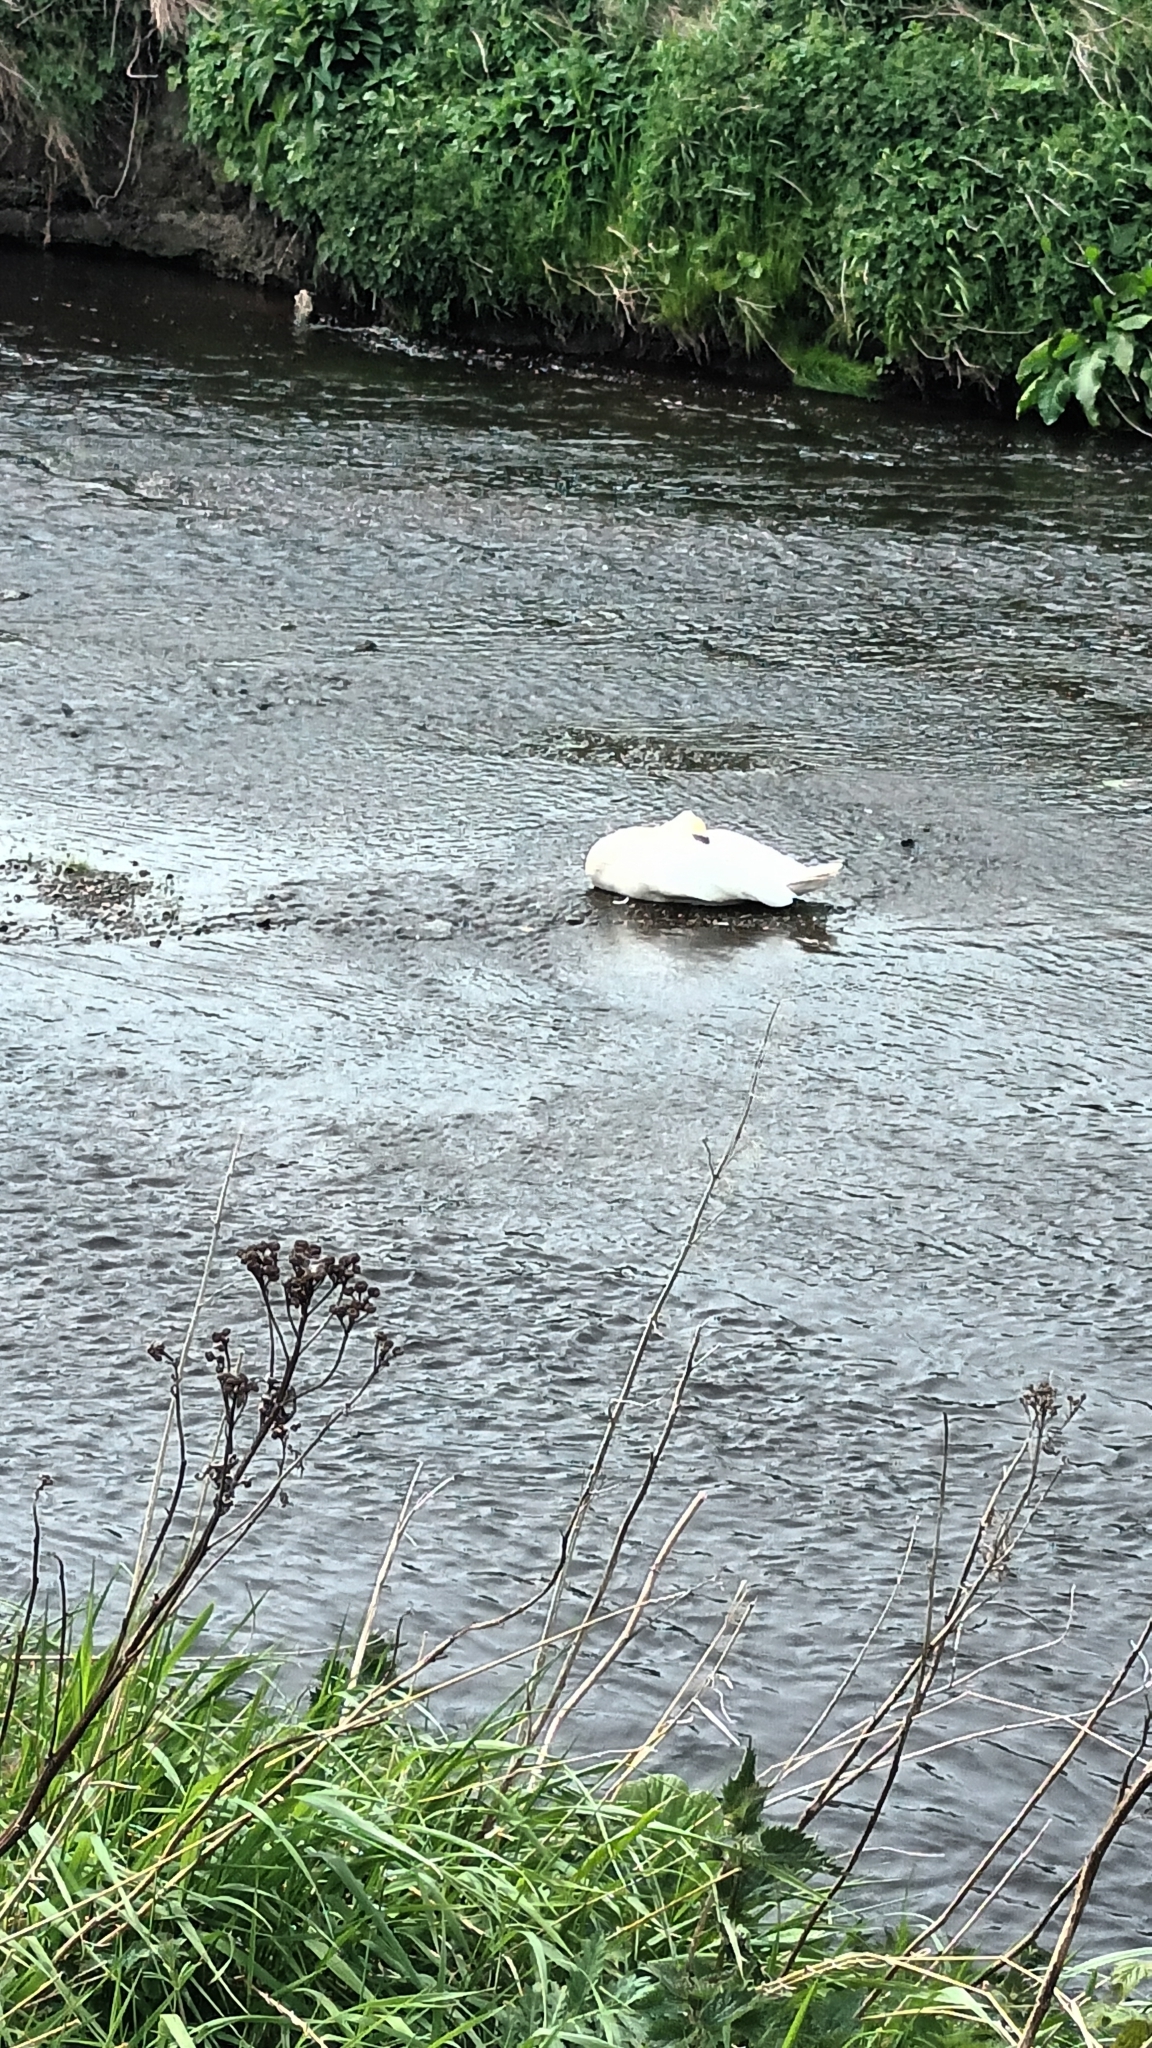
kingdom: Animalia
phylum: Chordata
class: Aves
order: Anseriformes
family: Anatidae
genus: Cygnus
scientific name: Cygnus olor
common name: Mute swan
